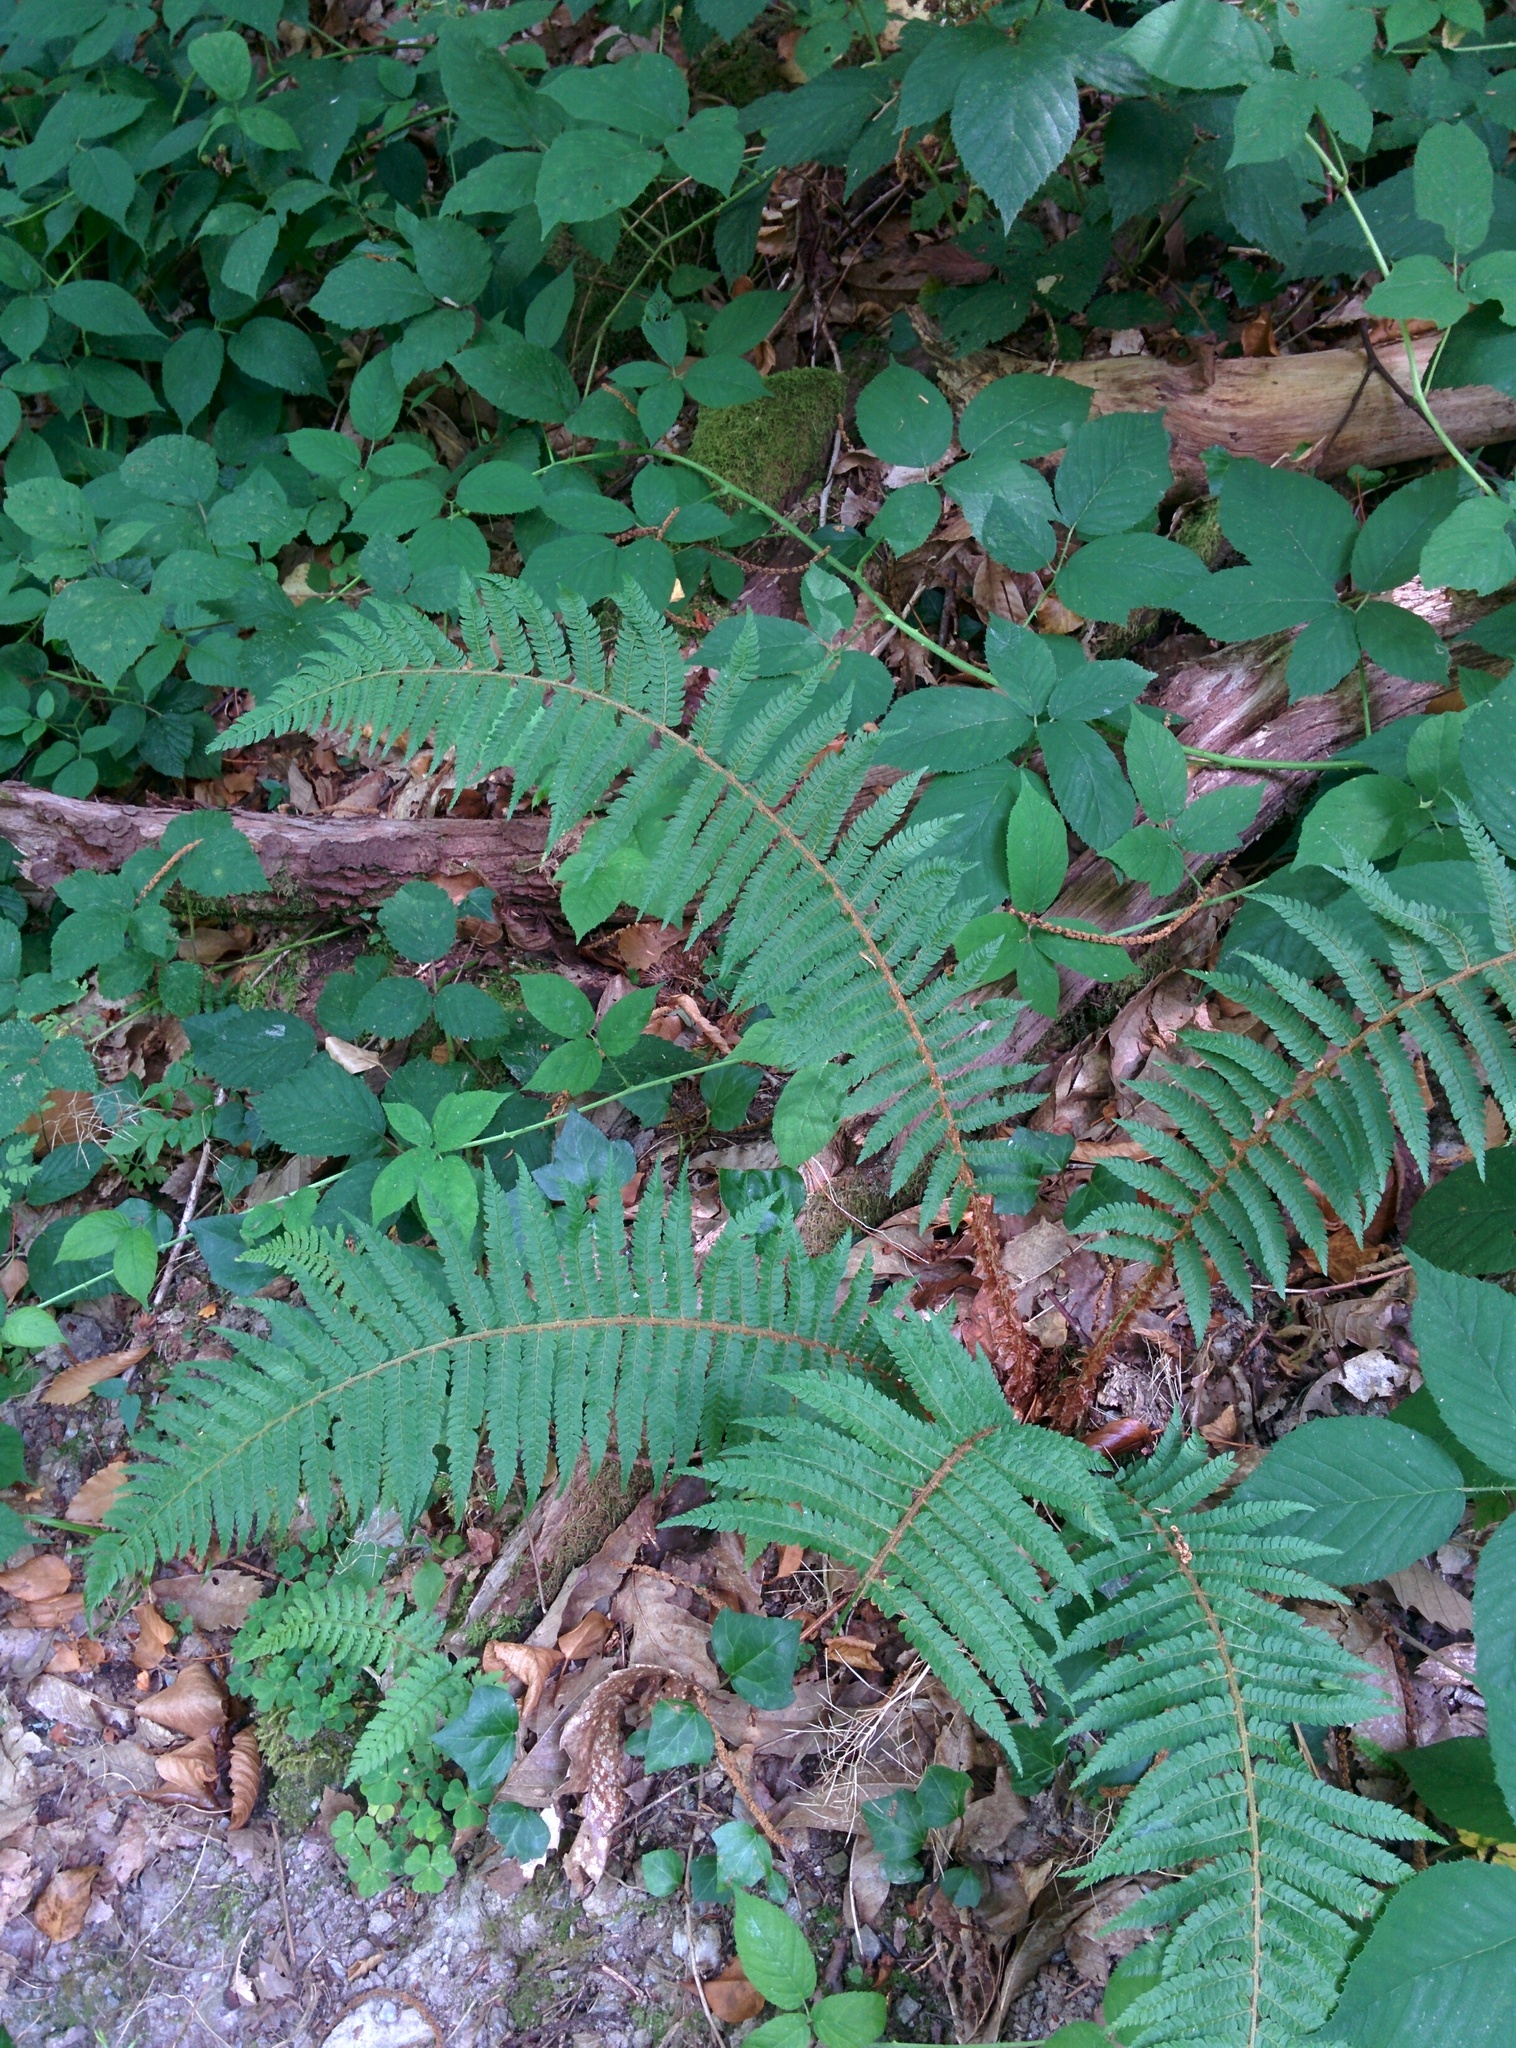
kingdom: Plantae
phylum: Tracheophyta
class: Polypodiopsida
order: Polypodiales
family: Dryopteridaceae
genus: Polystichum
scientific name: Polystichum setiferum
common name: Soft shield-fern
